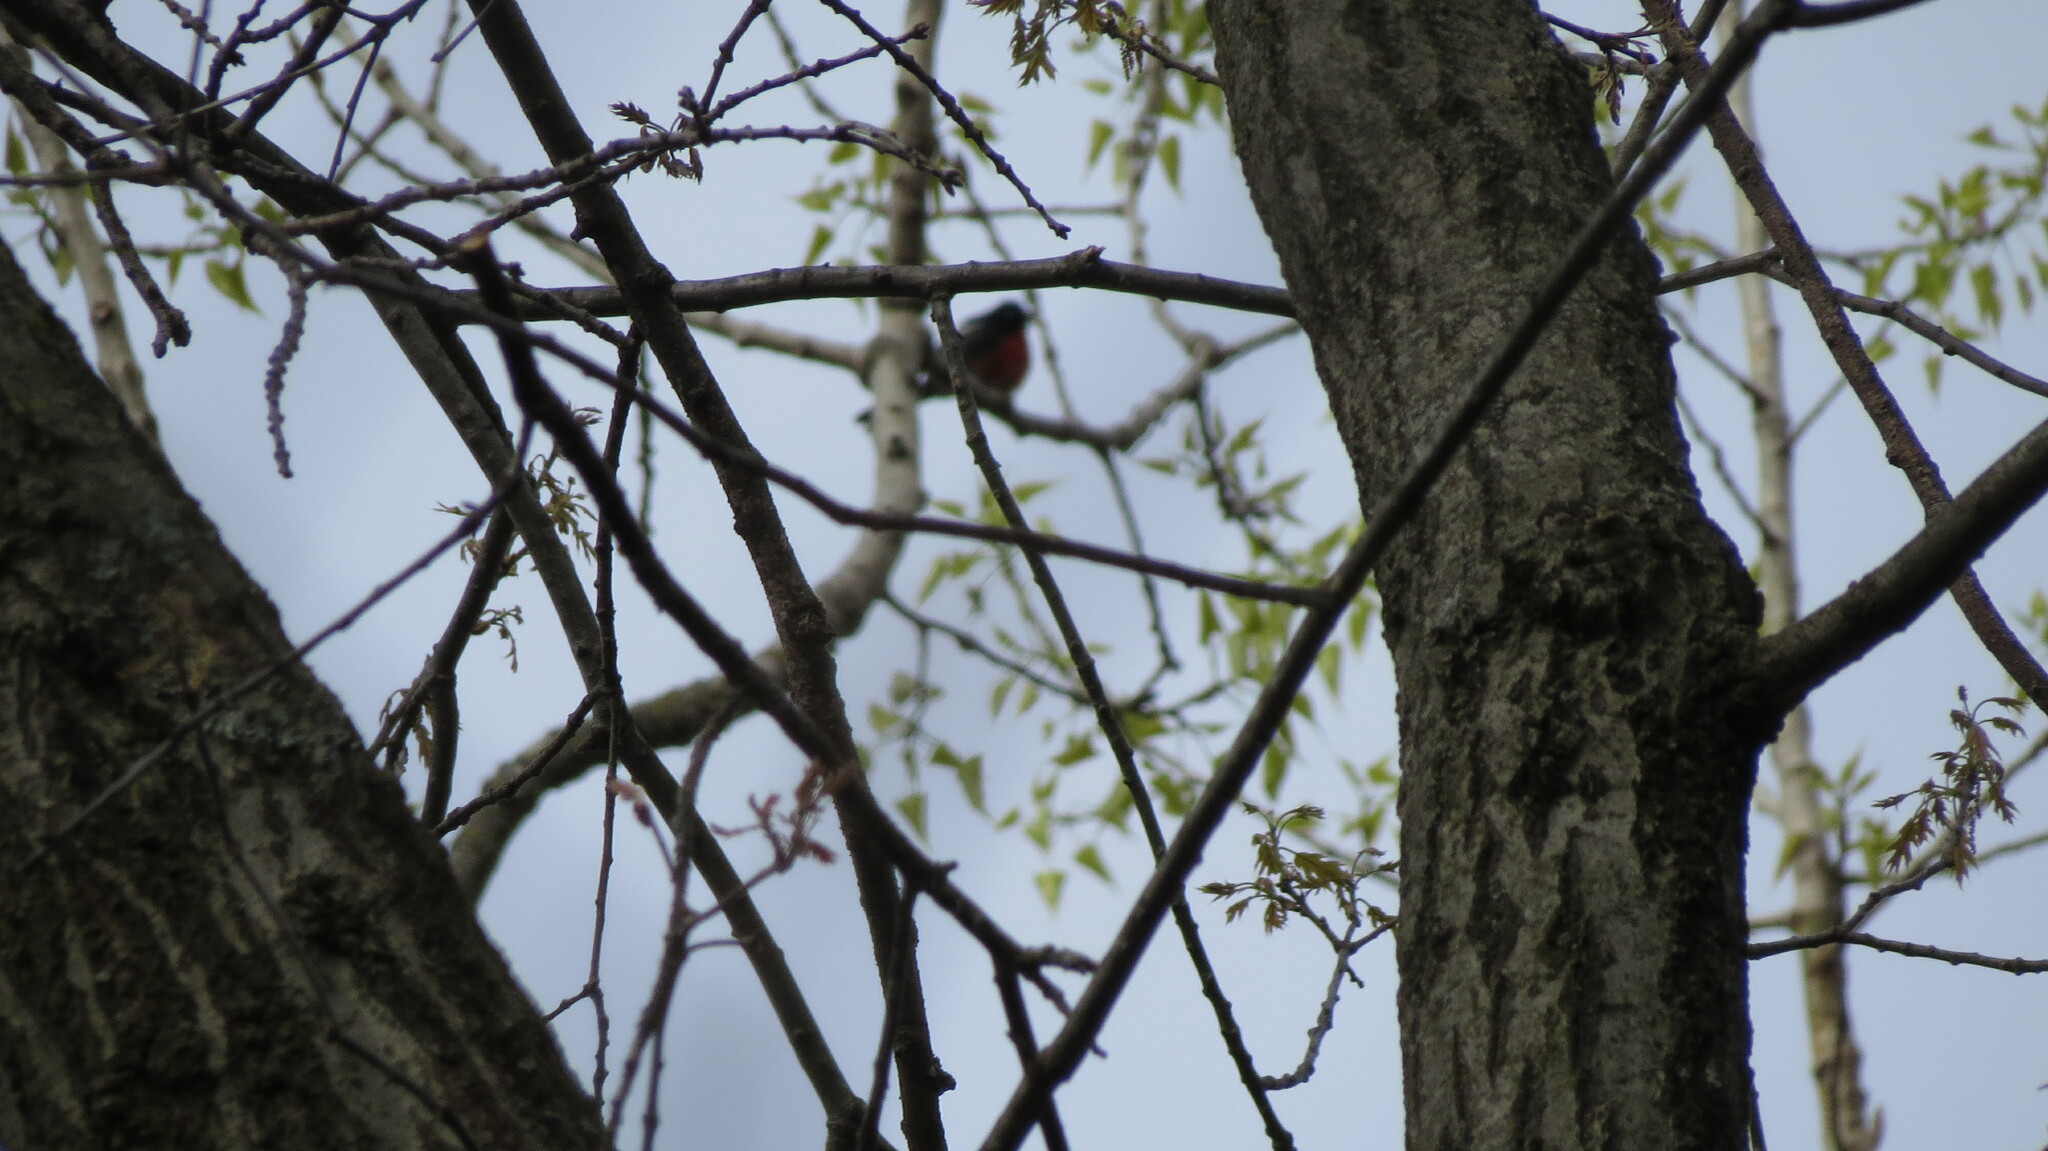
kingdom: Animalia
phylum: Chordata
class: Aves
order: Passeriformes
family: Parulidae
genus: Myioborus
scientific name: Myioborus pictus
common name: Painted whitestart
